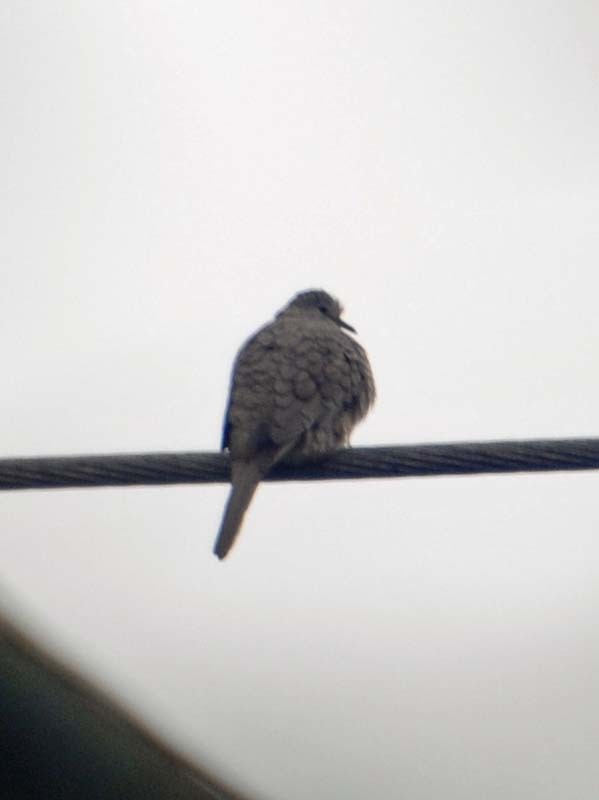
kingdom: Animalia
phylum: Chordata
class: Aves
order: Columbiformes
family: Columbidae
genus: Columbina
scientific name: Columbina inca
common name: Inca dove
